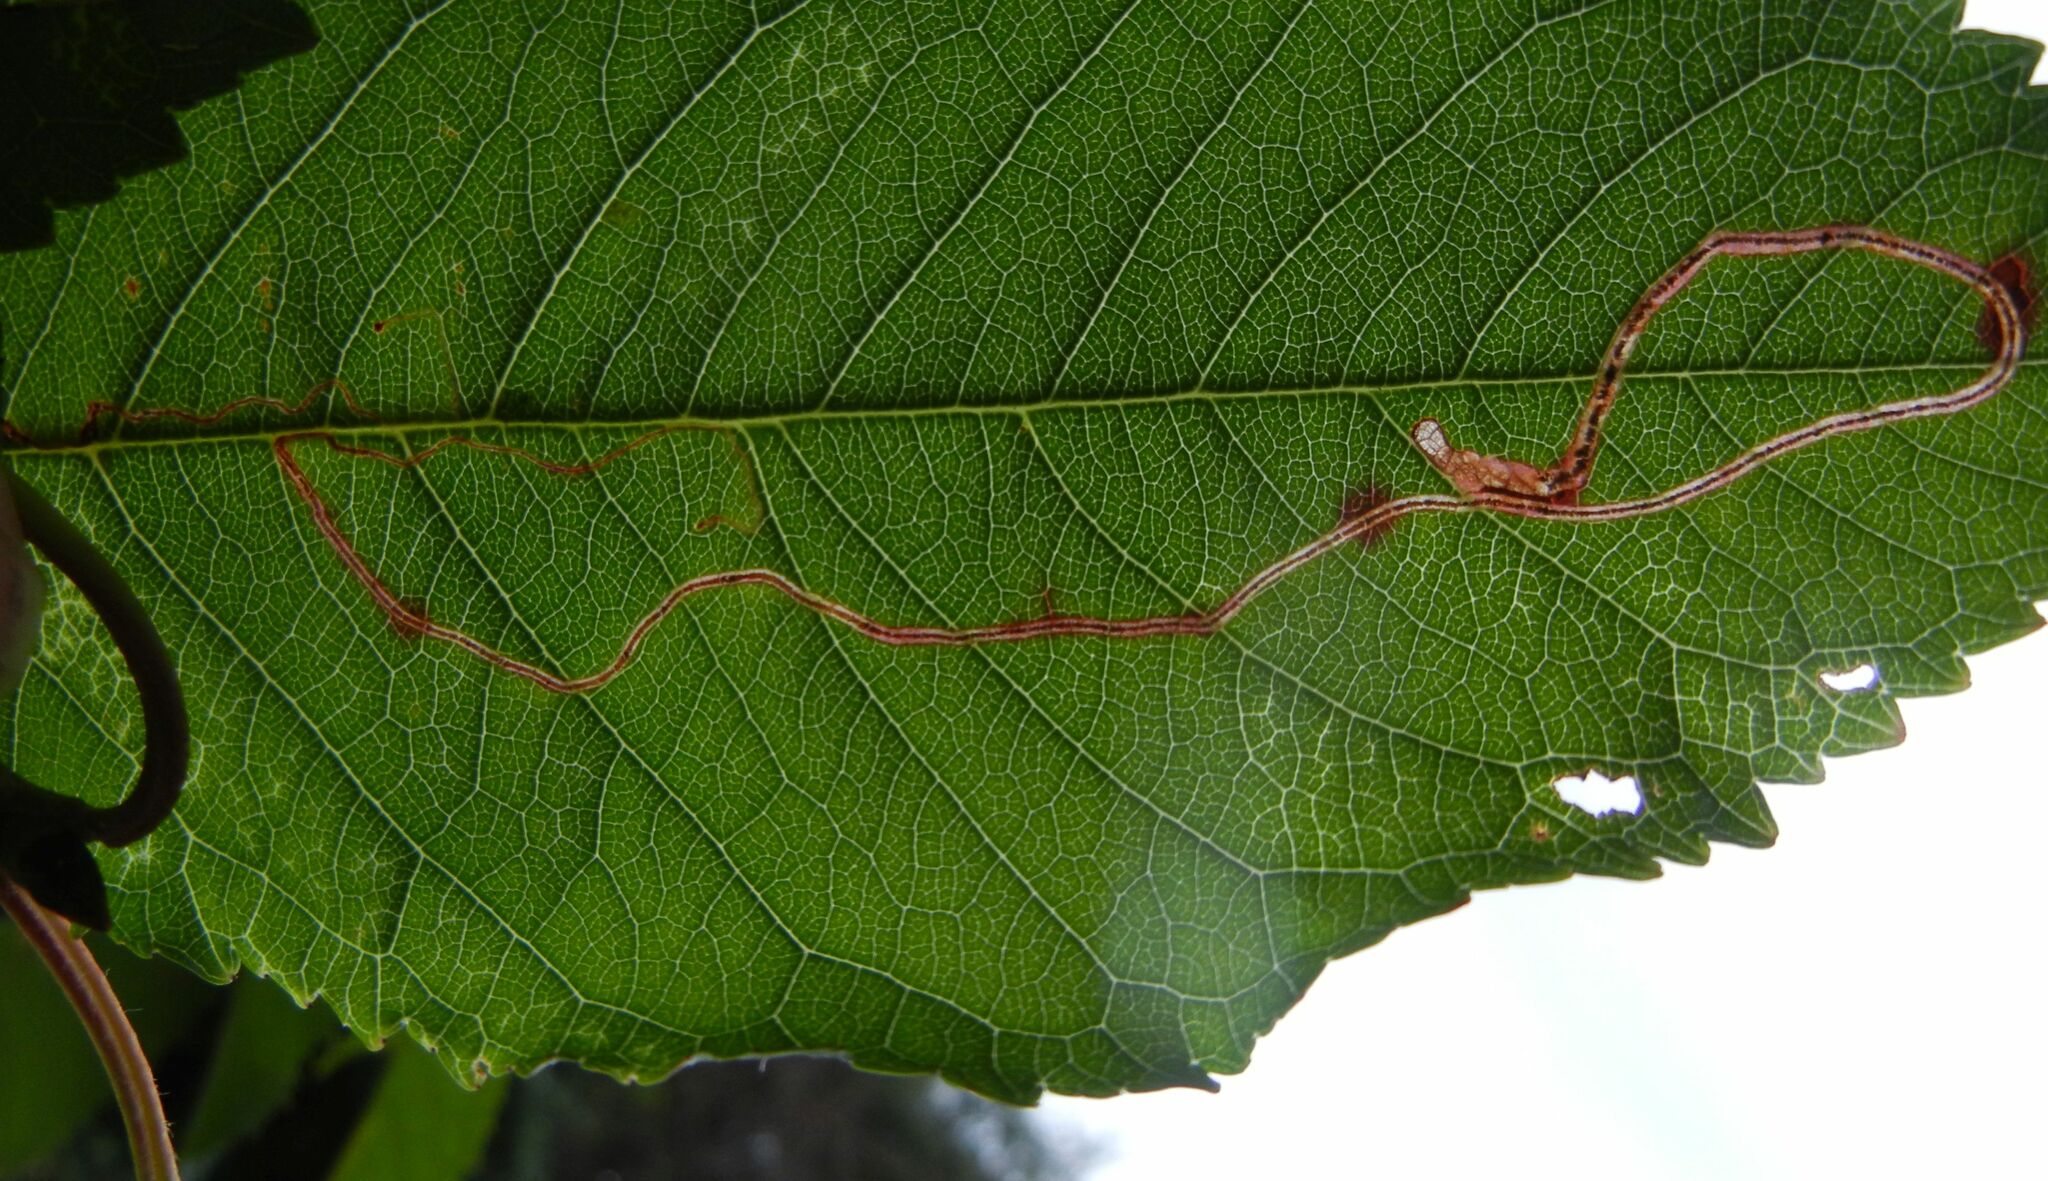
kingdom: Animalia
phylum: Arthropoda
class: Insecta
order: Lepidoptera
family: Lyonetiidae
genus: Lyonetia
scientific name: Lyonetia clerkella
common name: Apple leaf miner
